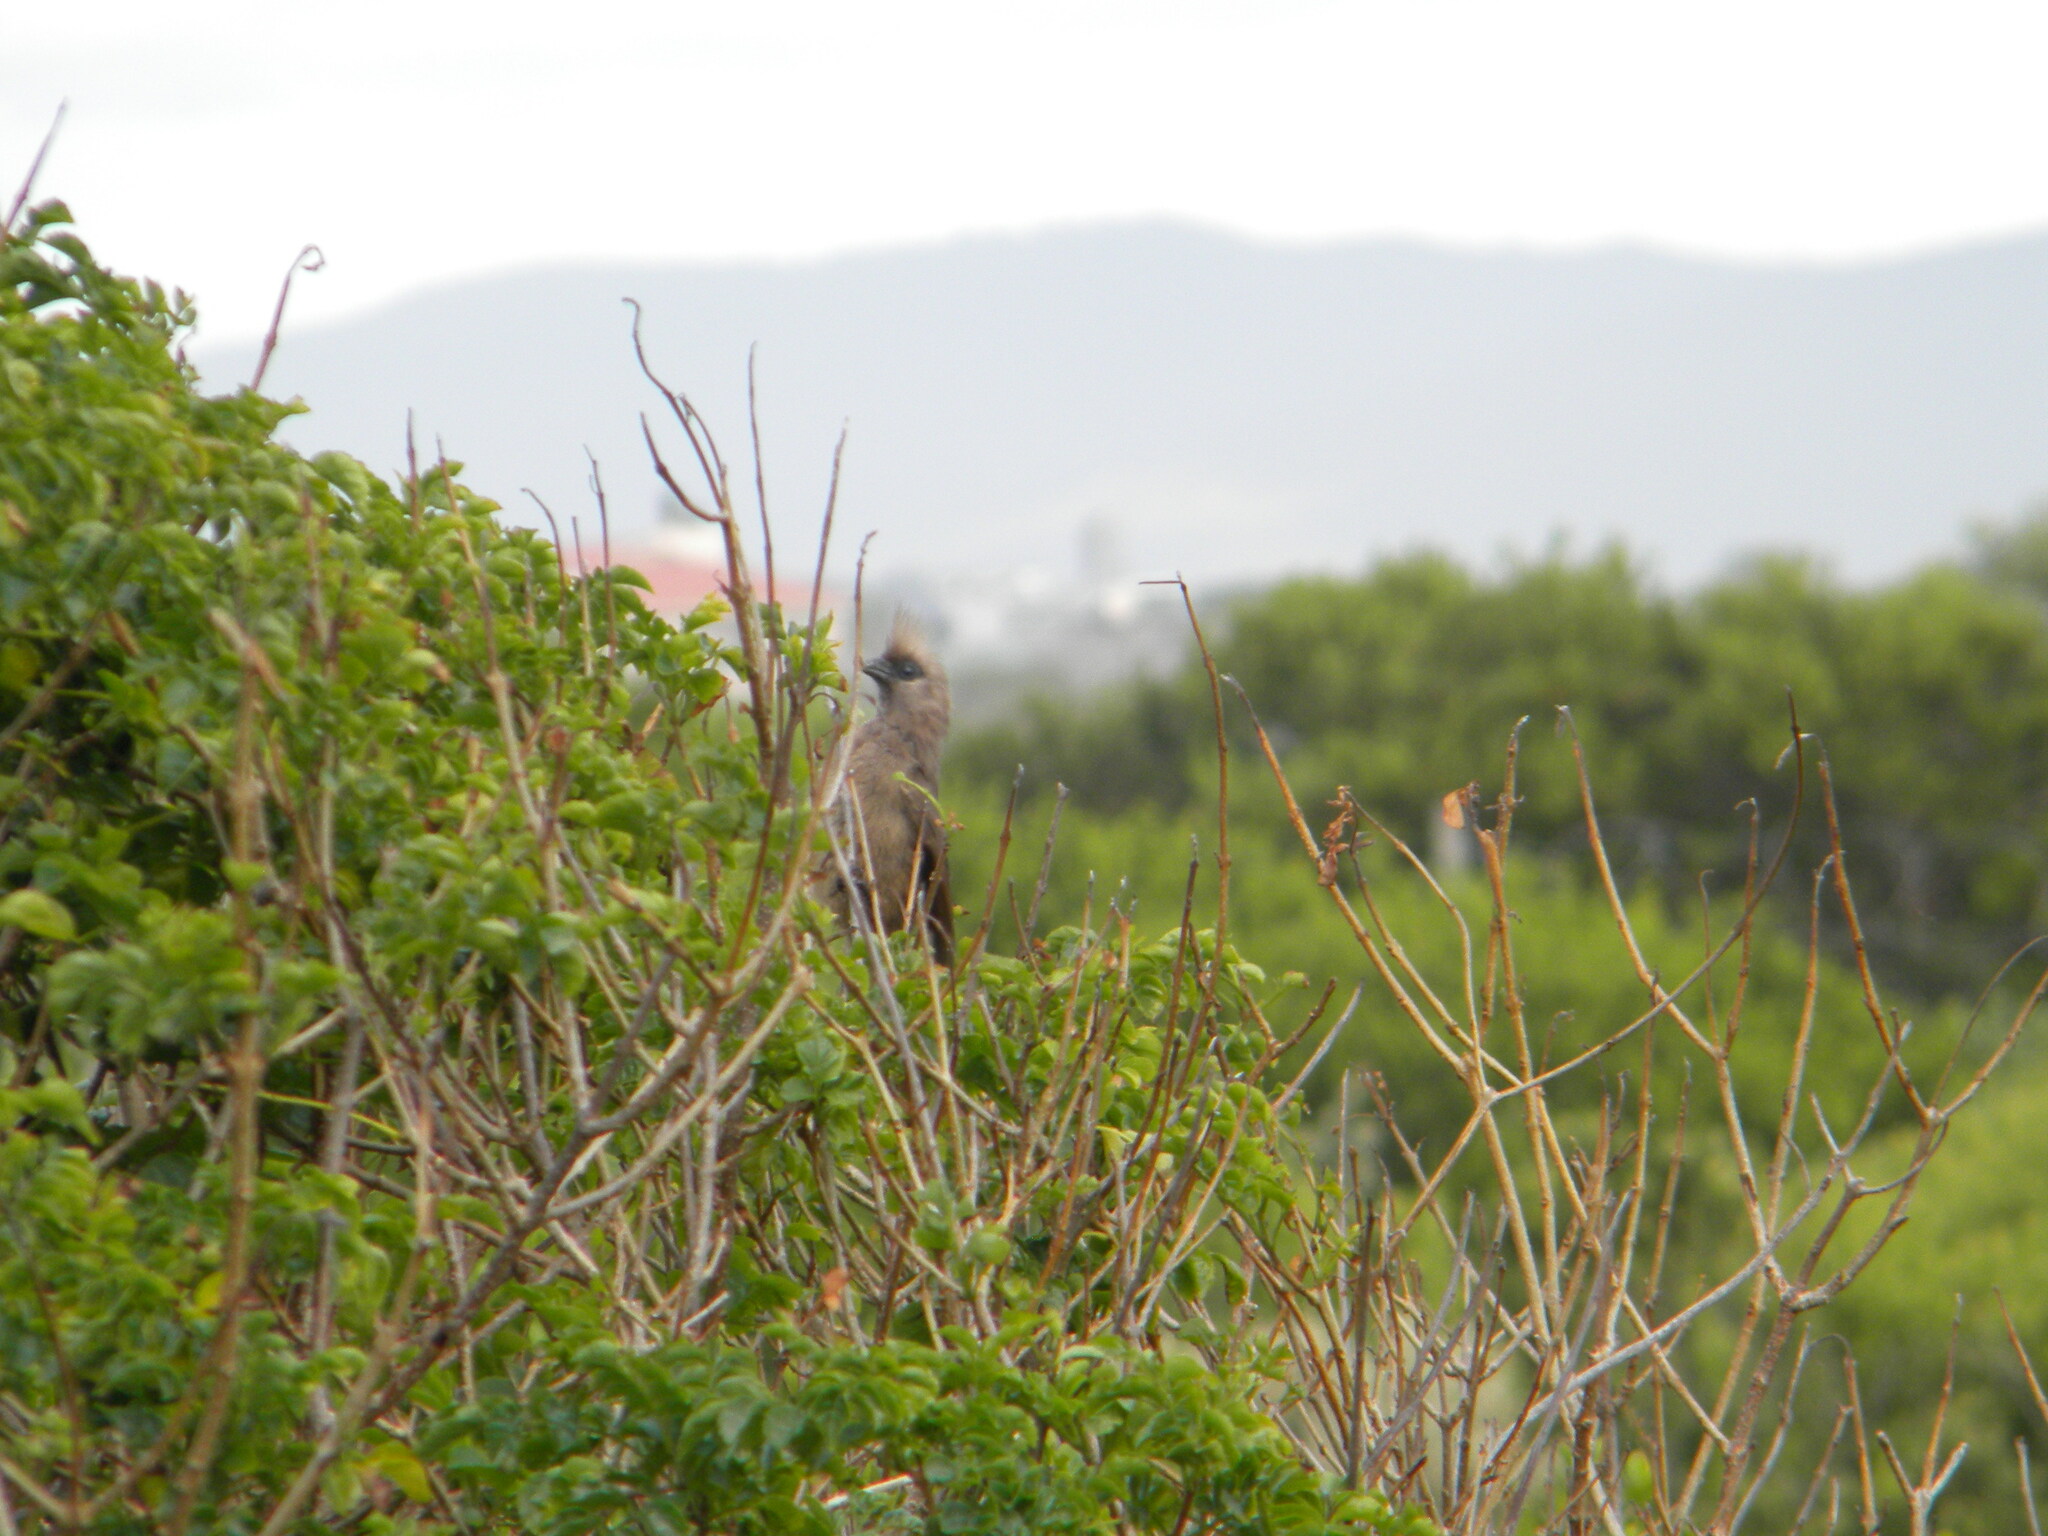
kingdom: Animalia
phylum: Chordata
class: Aves
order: Coliiformes
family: Coliidae
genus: Colius
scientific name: Colius striatus
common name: Speckled mousebird
